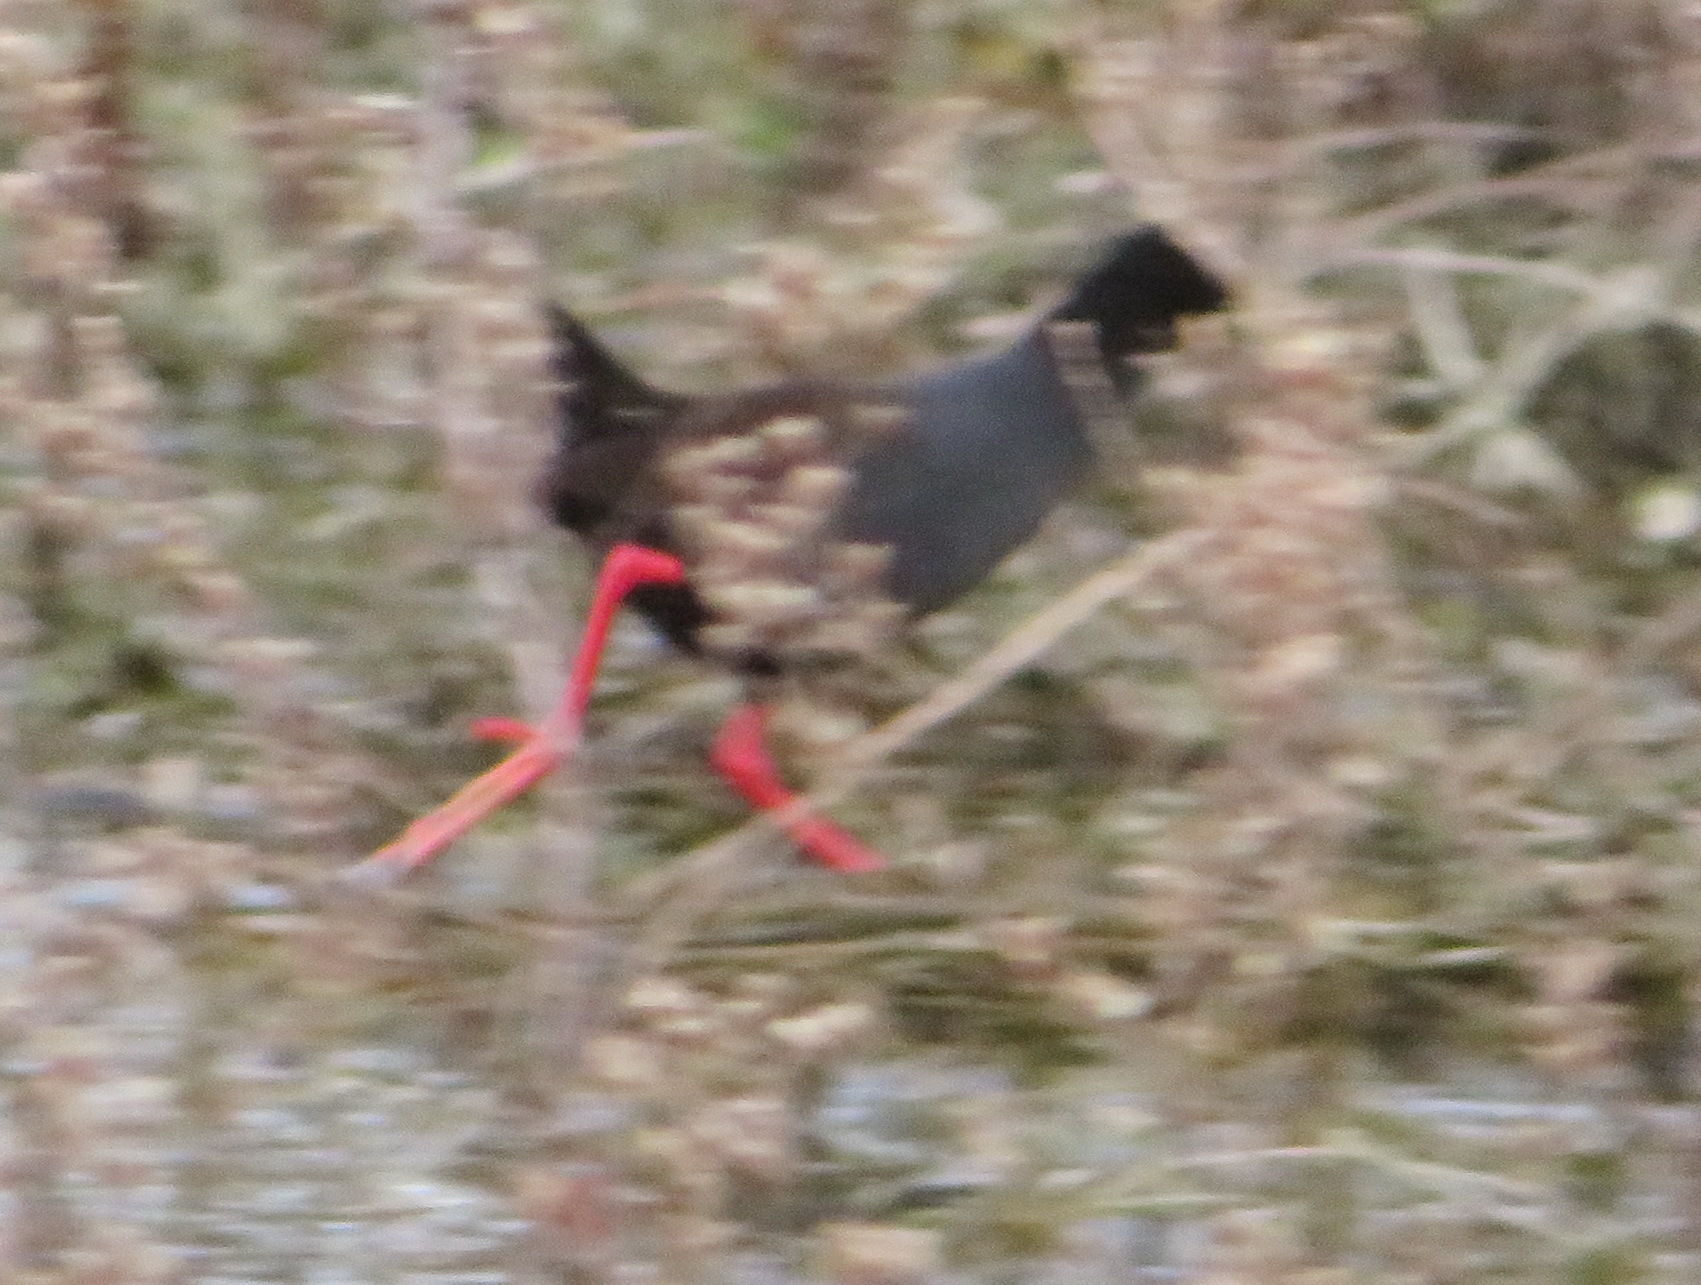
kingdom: Animalia
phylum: Chordata
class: Aves
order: Gruiformes
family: Rallidae
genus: Amaurornis
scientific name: Amaurornis flavirostra
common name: Black crake
